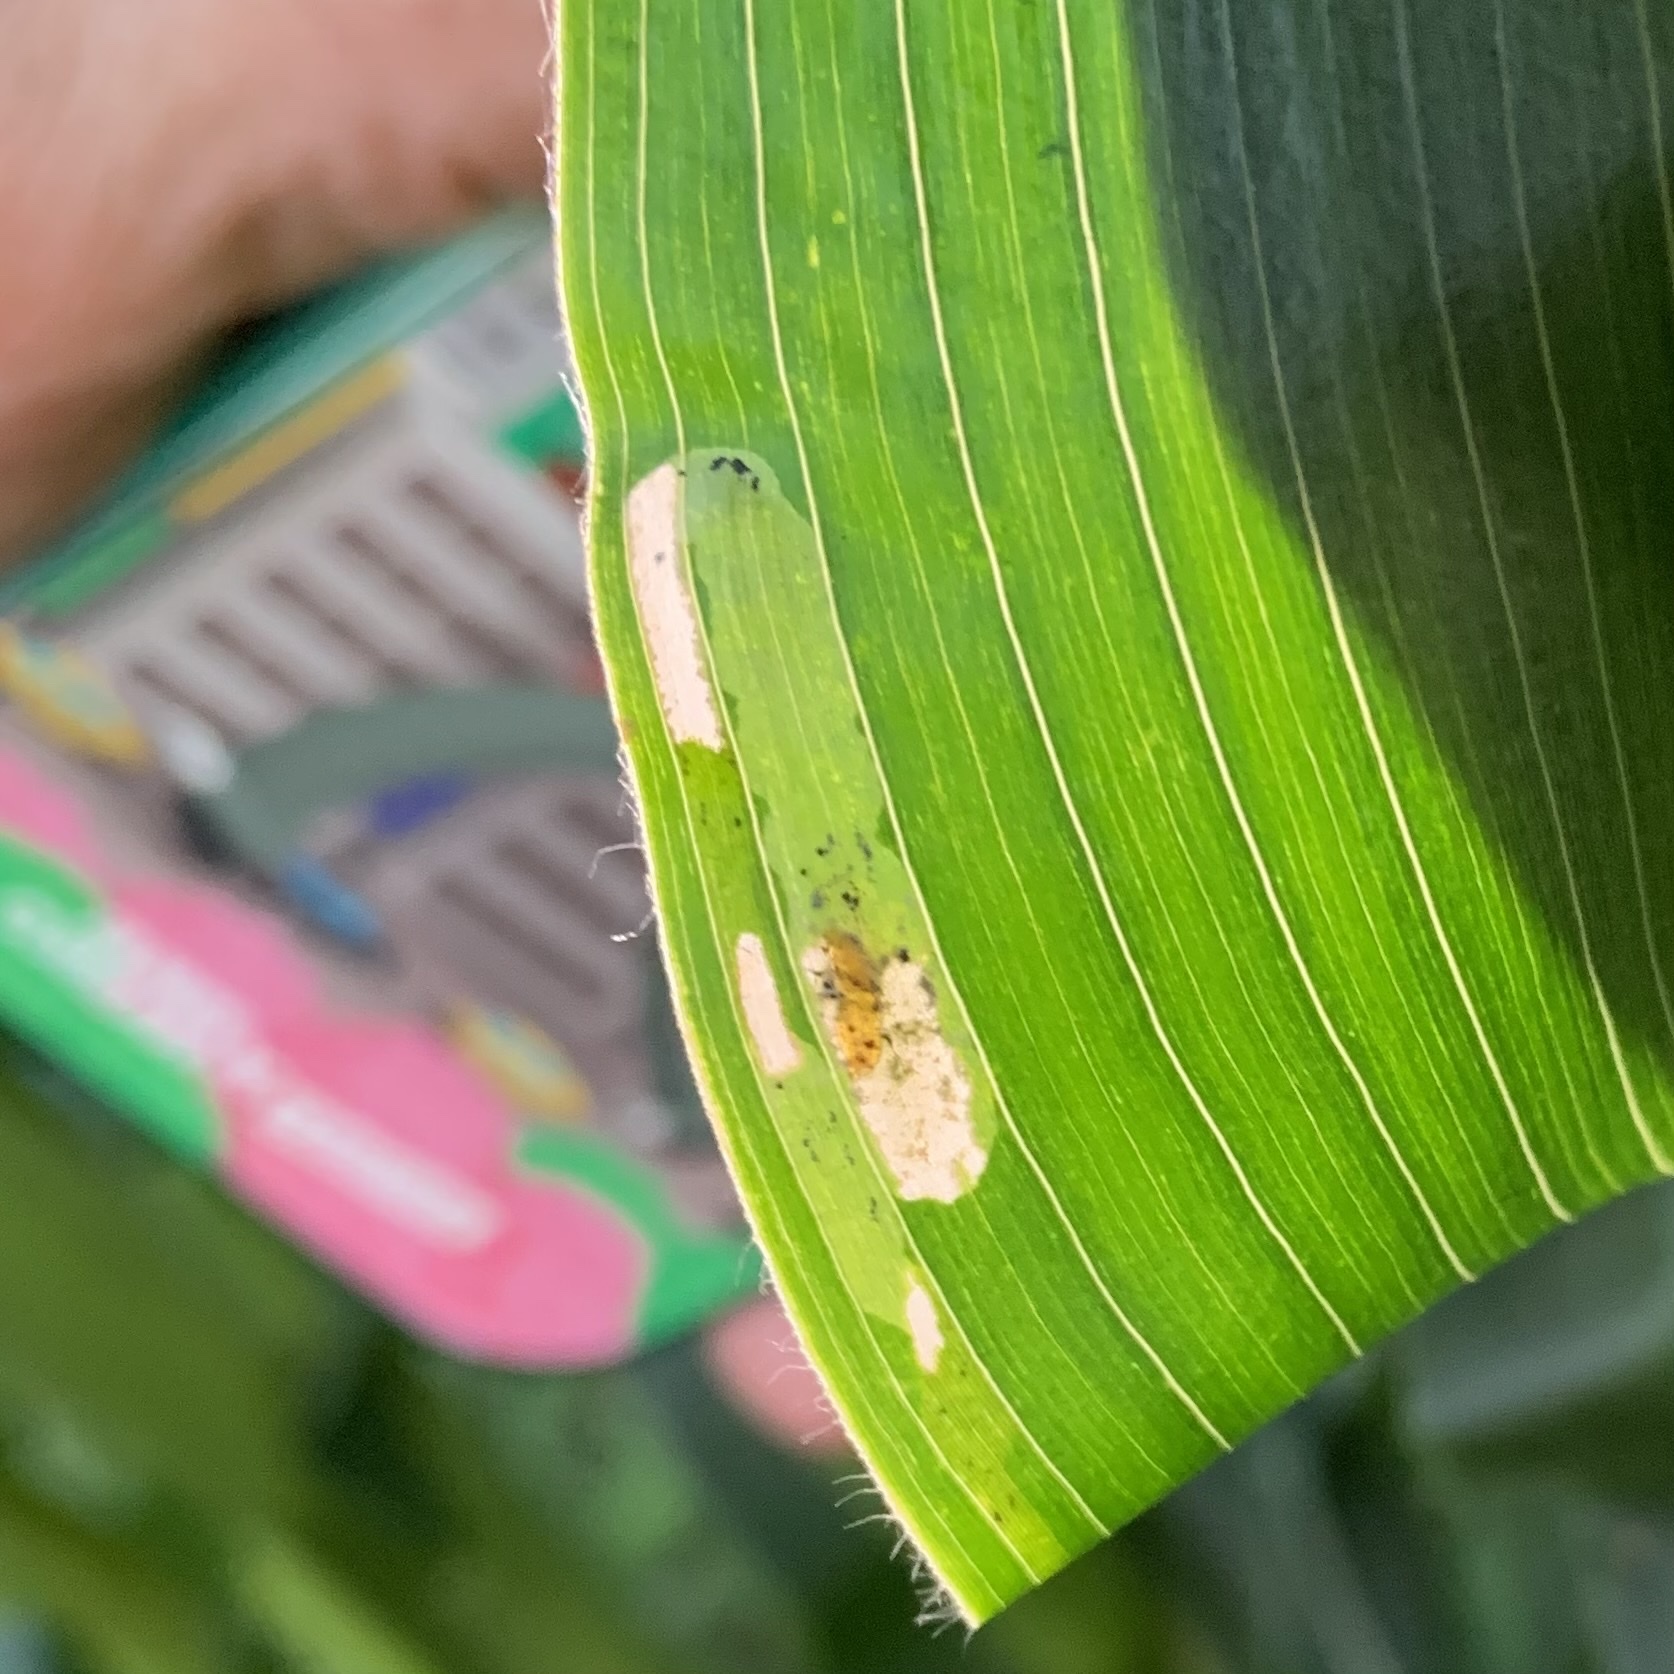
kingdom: Animalia
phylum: Arthropoda
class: Insecta
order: Diptera
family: Agromyzidae
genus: Agromyza
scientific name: Agromyza parvicornis
